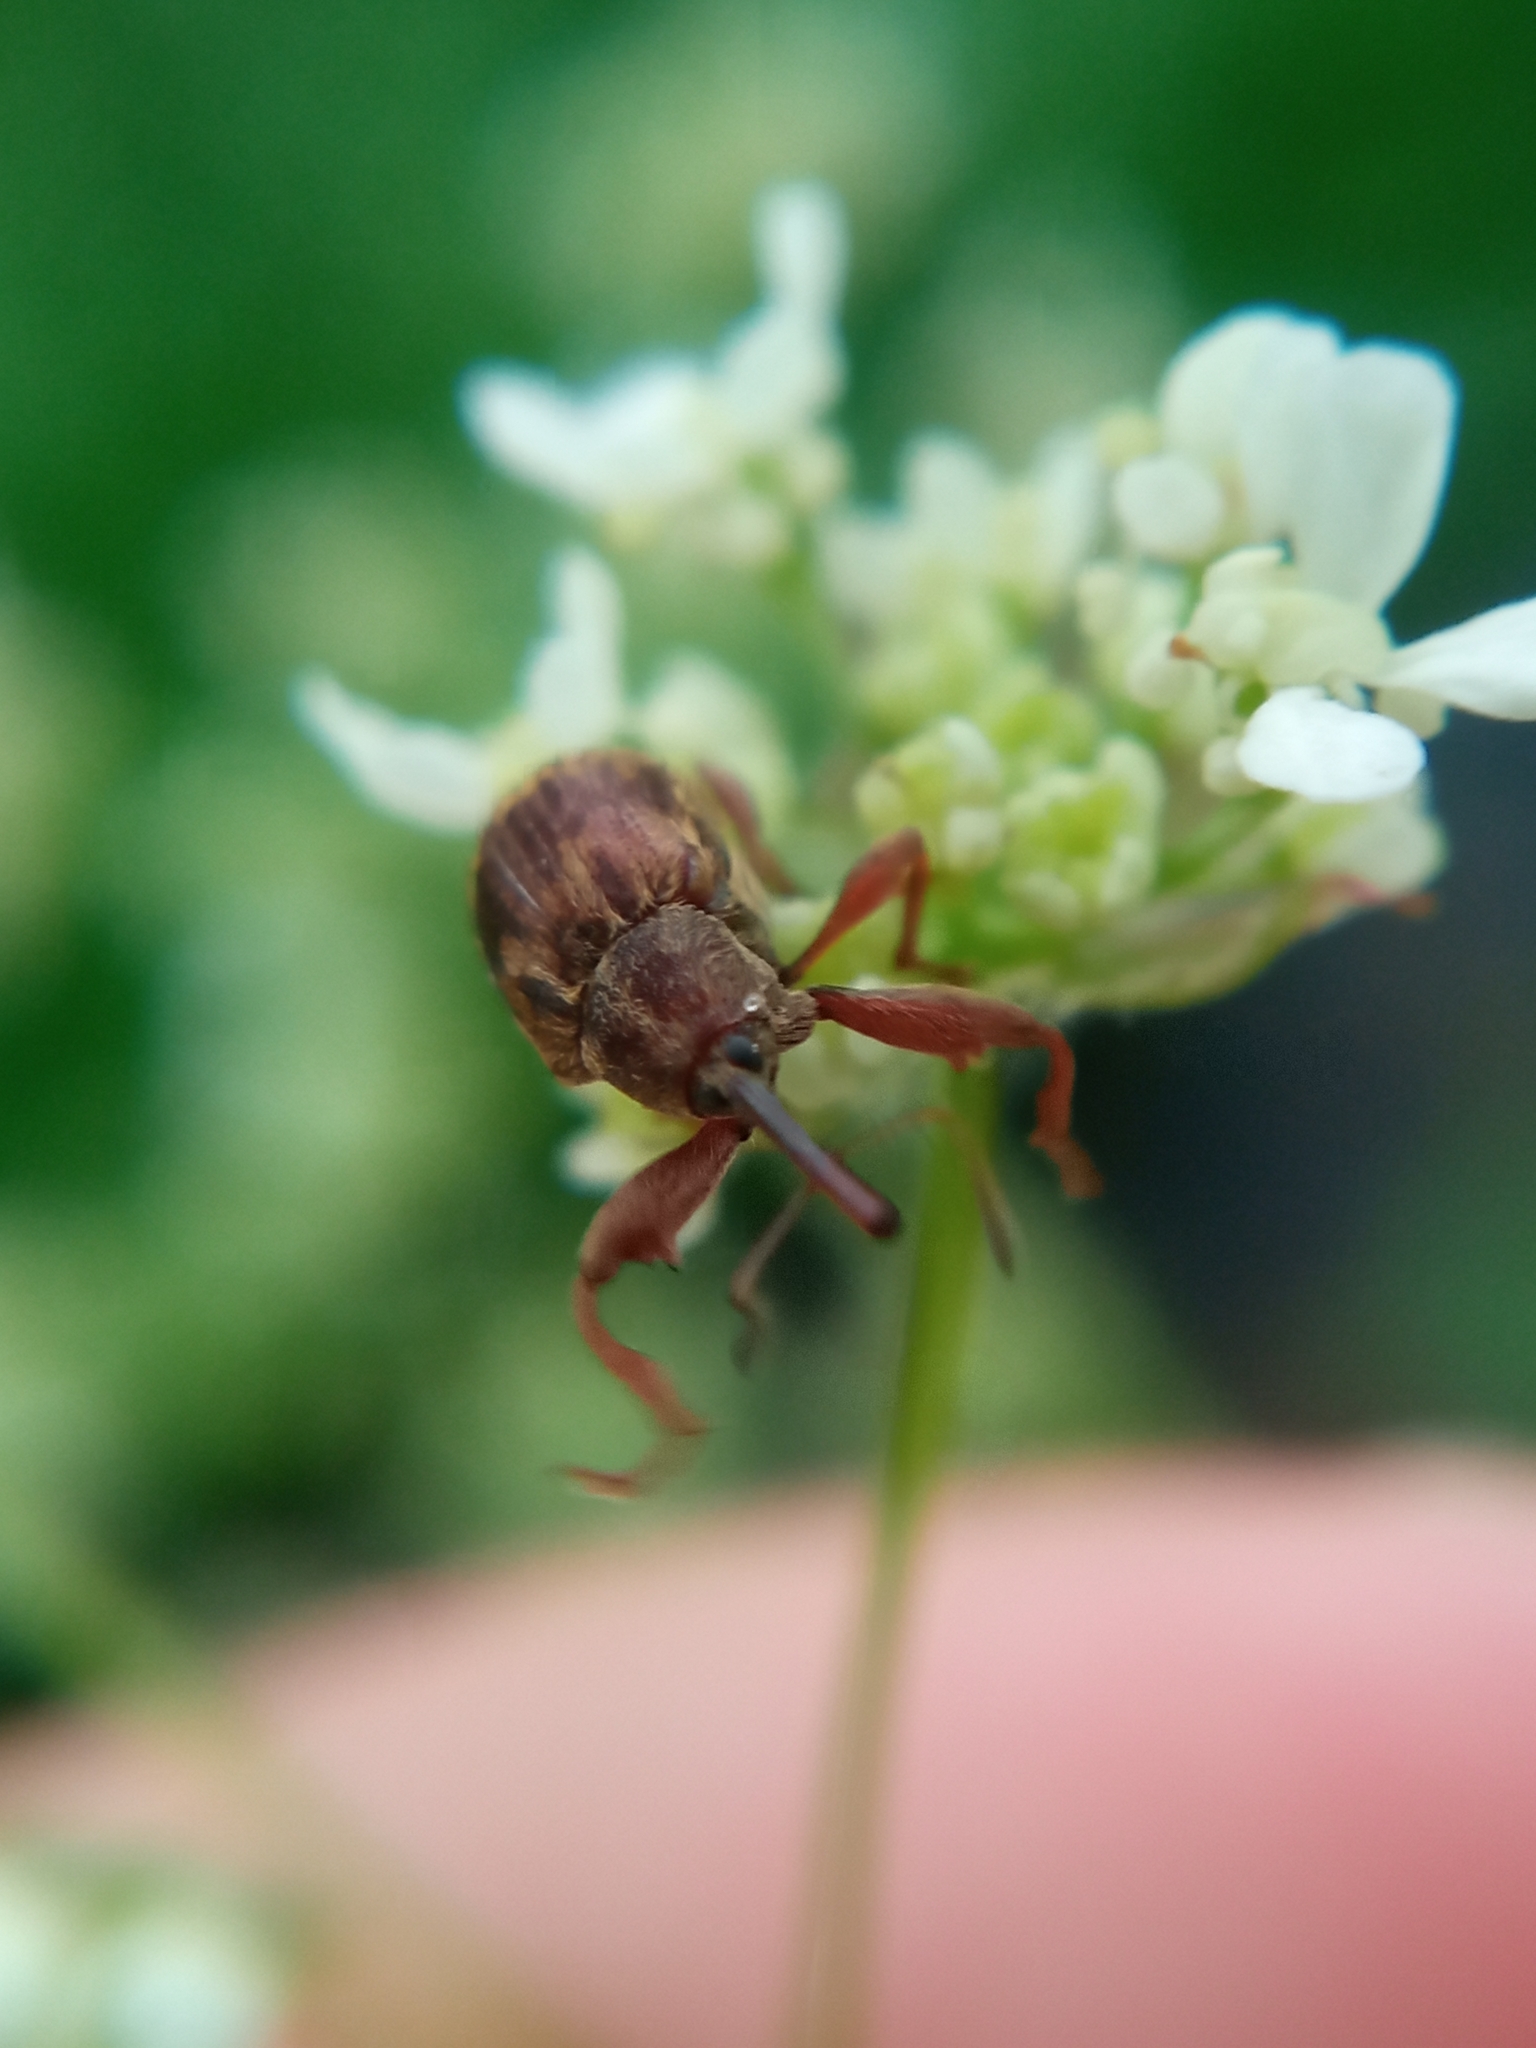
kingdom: Animalia
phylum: Arthropoda
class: Insecta
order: Coleoptera
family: Curculionidae
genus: Anthonomus
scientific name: Anthonomus rectirostris
